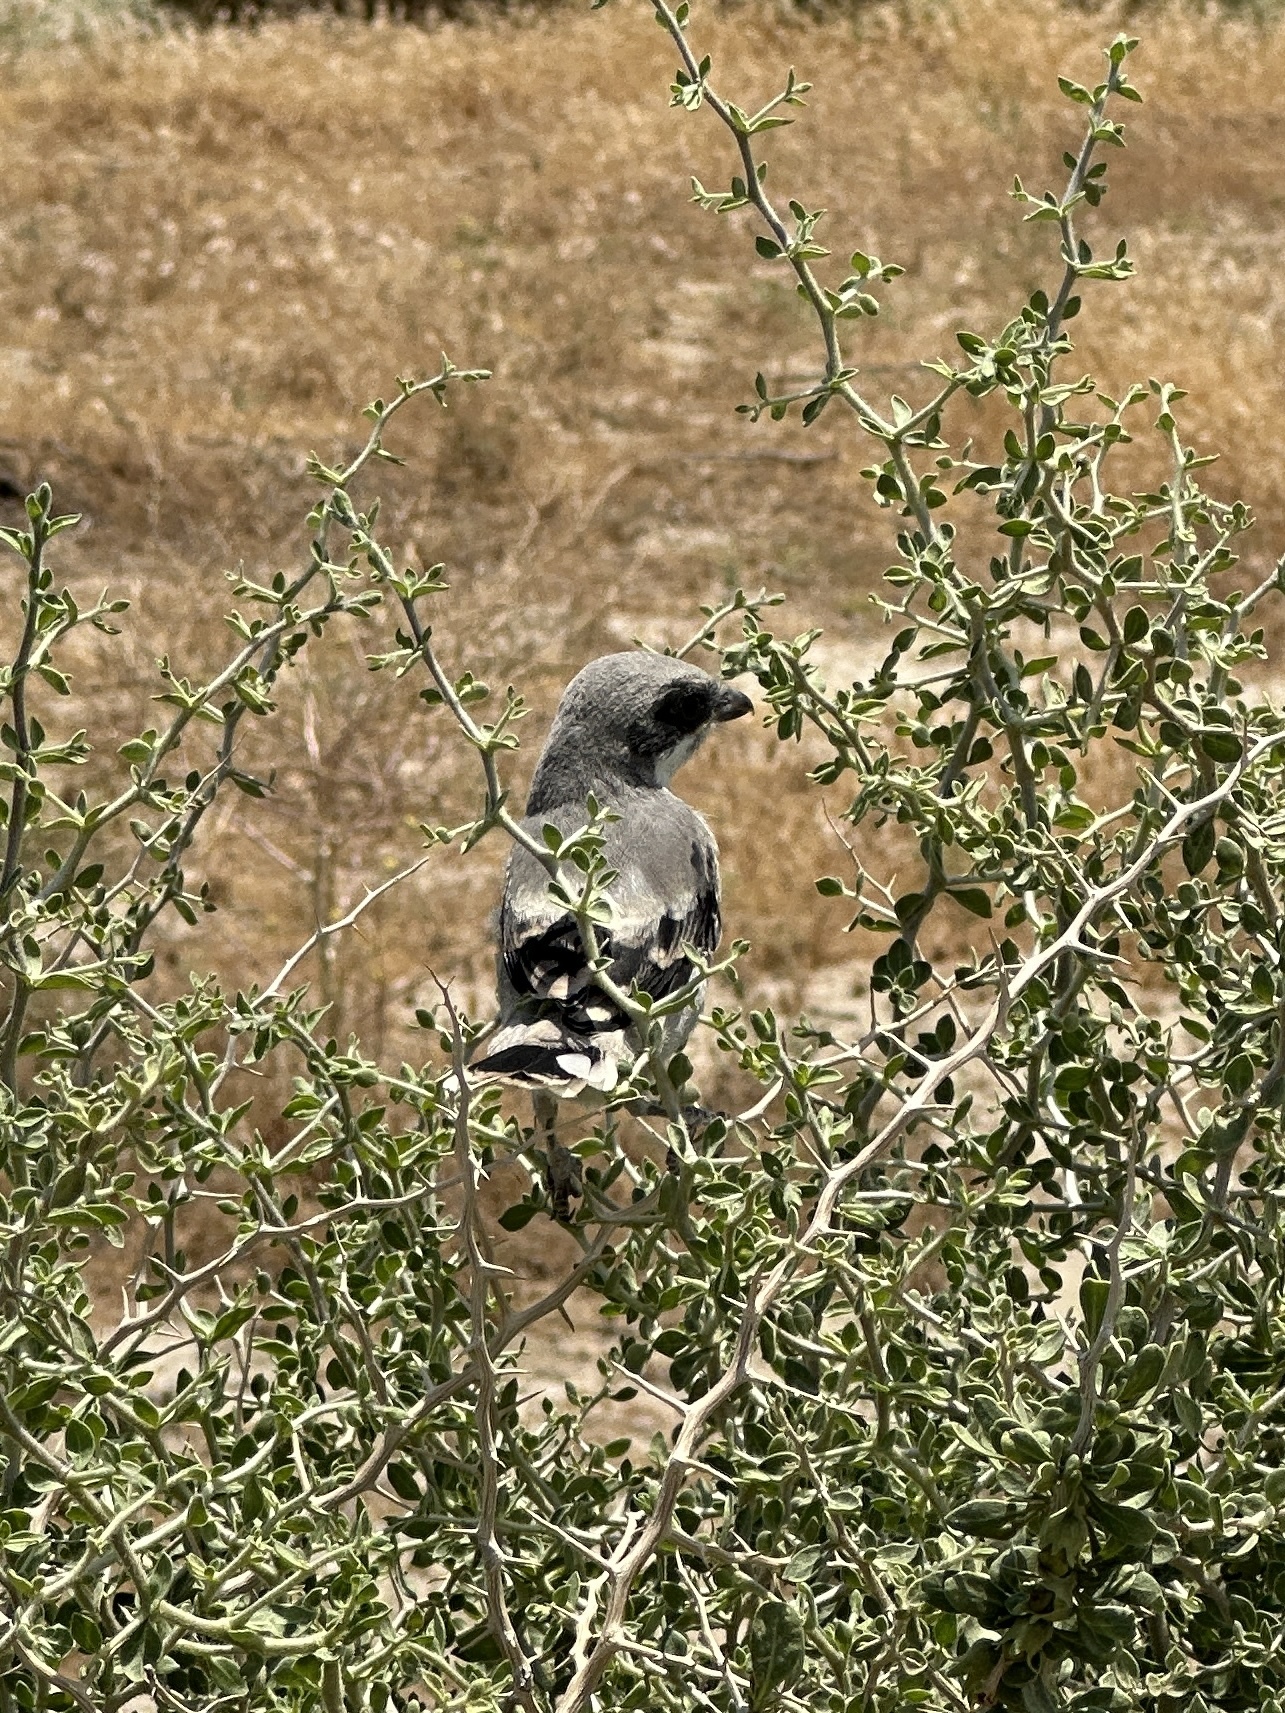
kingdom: Animalia
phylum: Chordata
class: Aves
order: Passeriformes
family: Laniidae
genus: Lanius
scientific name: Lanius ludovicianus
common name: Loggerhead shrike
